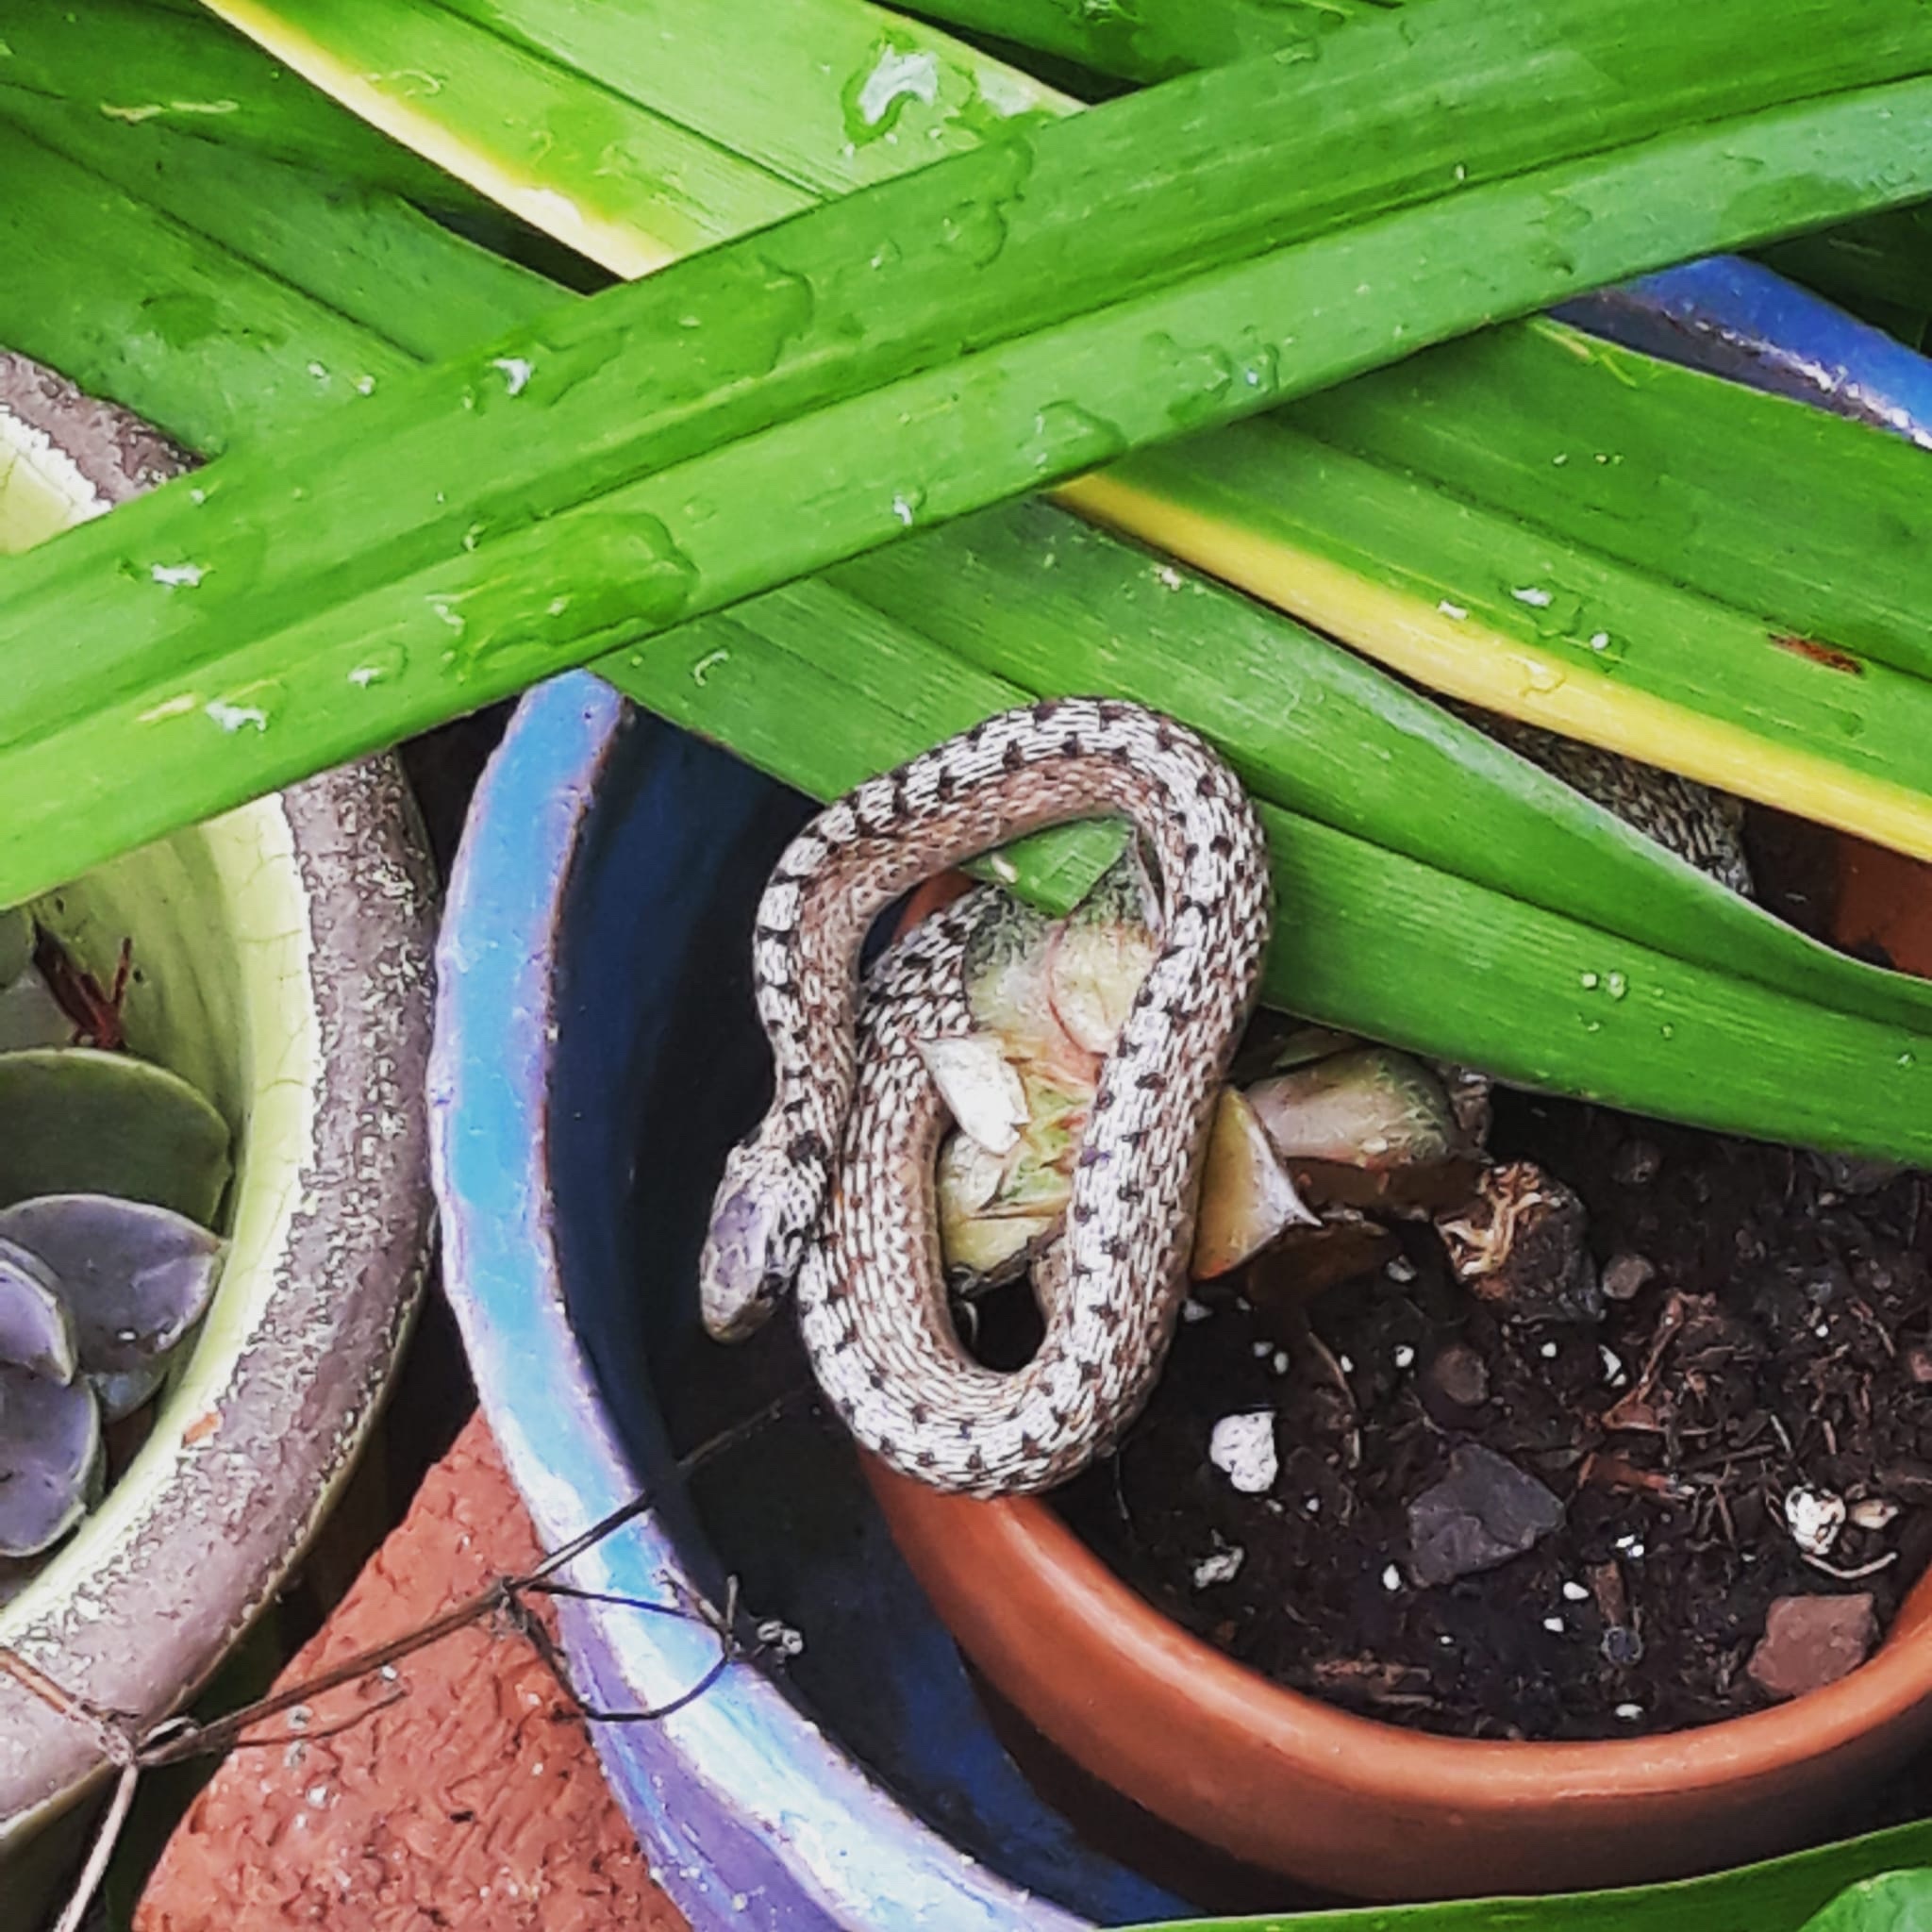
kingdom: Animalia
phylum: Chordata
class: Squamata
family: Colubridae
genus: Storeria
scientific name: Storeria dekayi
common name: (dekay’s) brown snake
